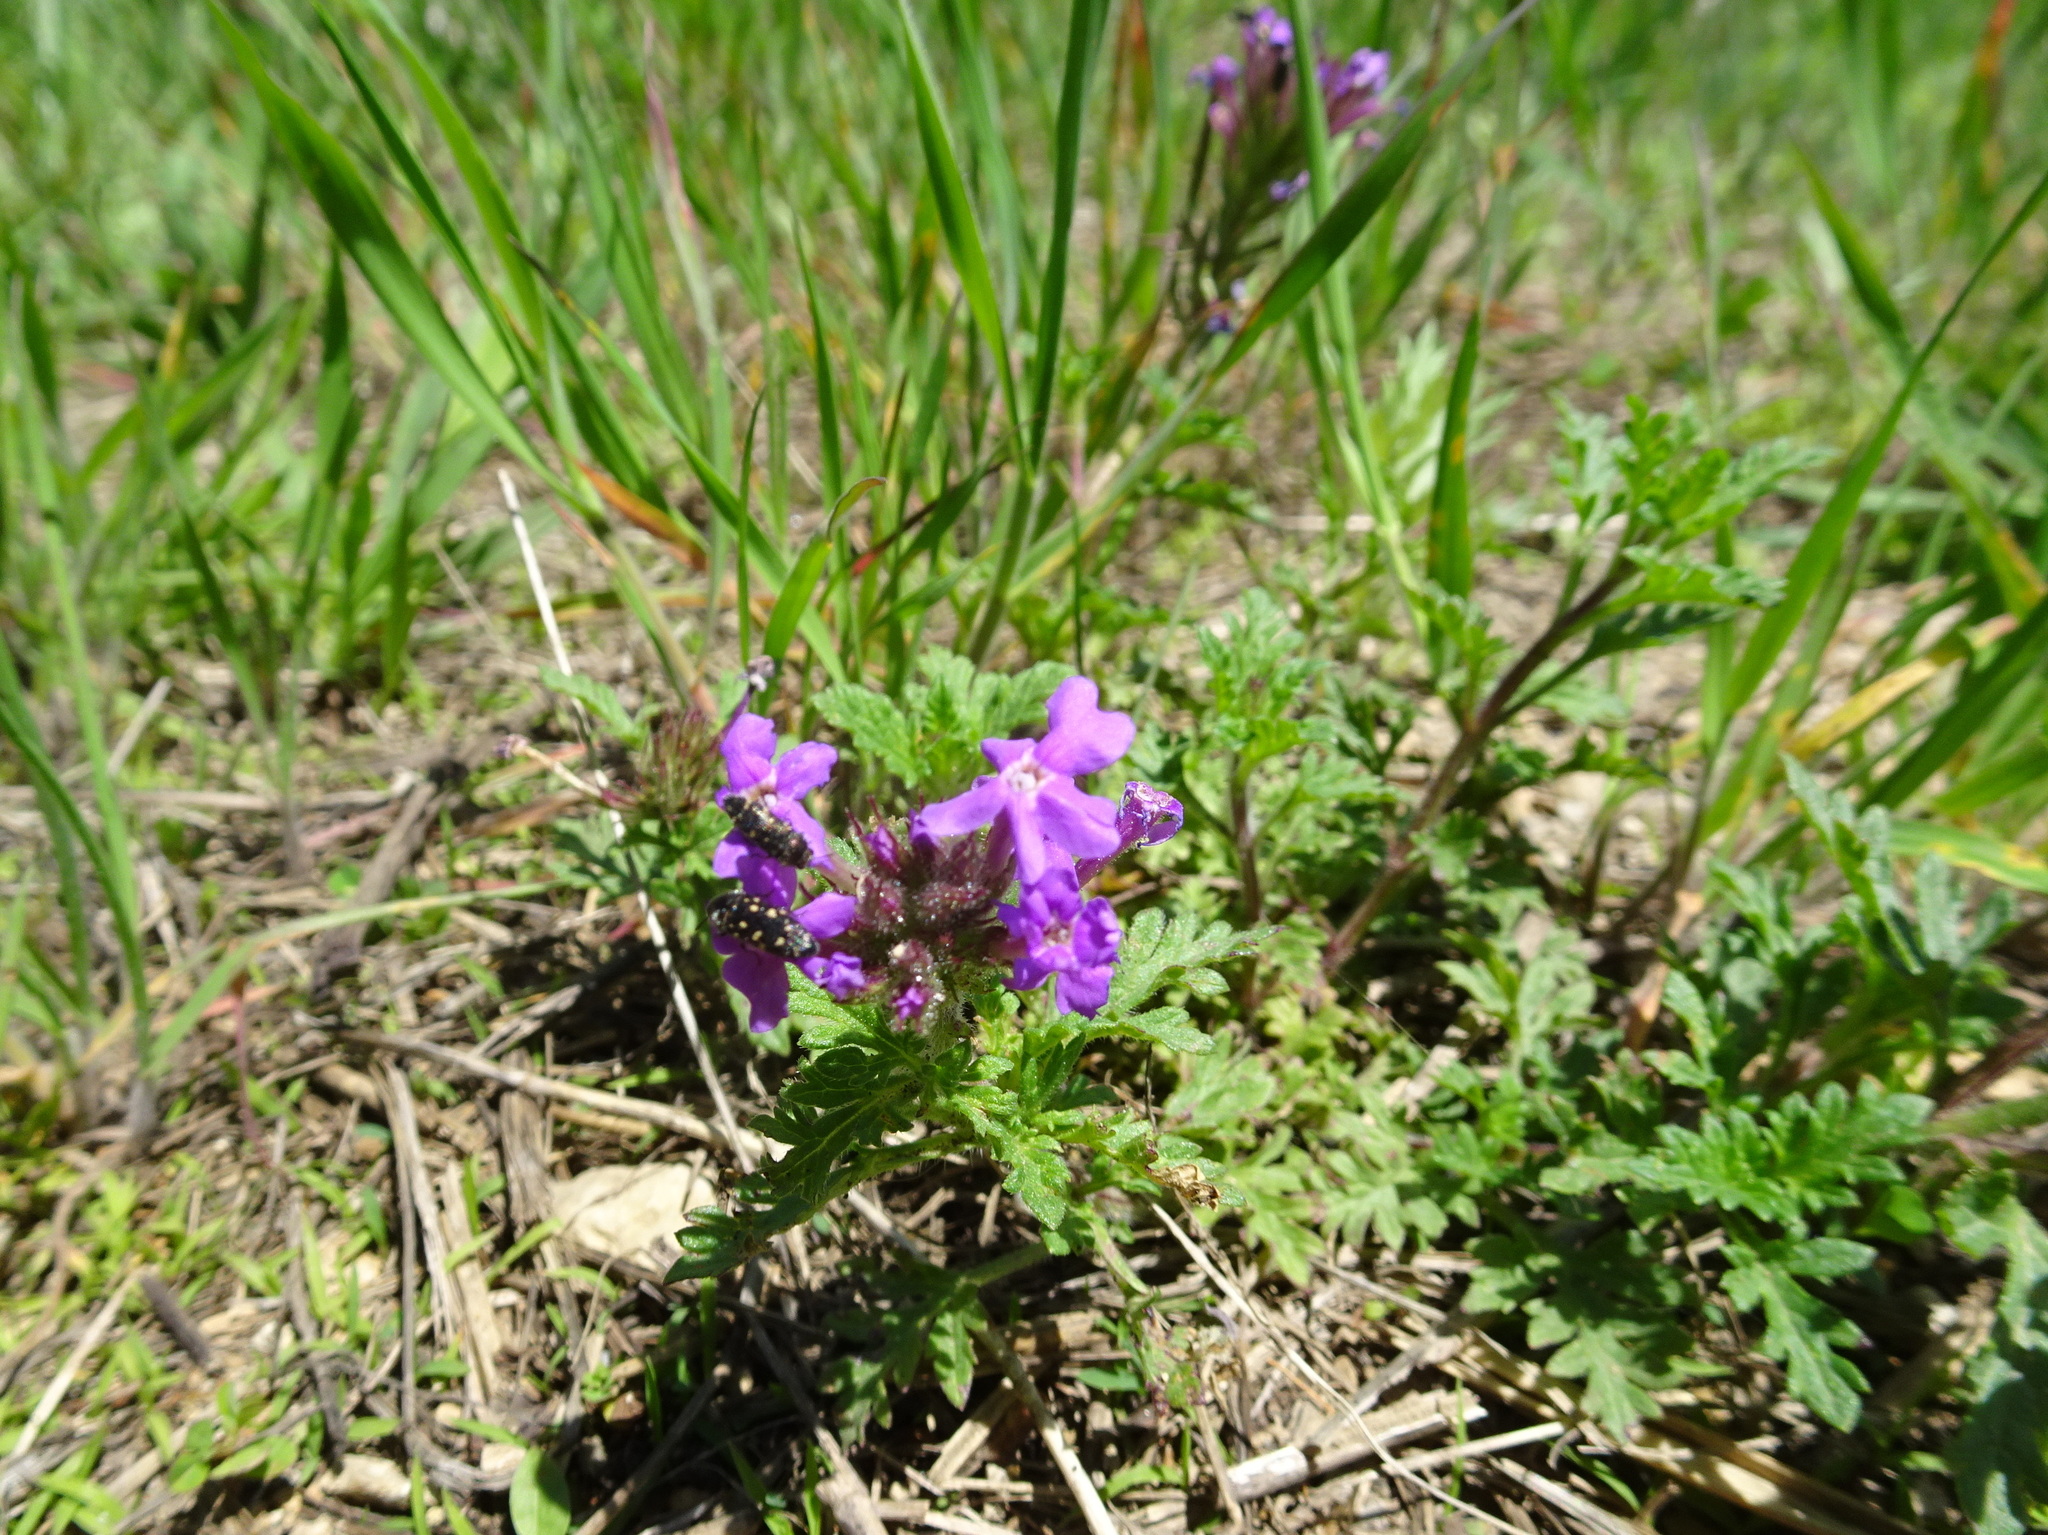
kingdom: Plantae
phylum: Tracheophyta
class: Magnoliopsida
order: Lamiales
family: Verbenaceae
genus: Verbena
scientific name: Verbena canadensis
